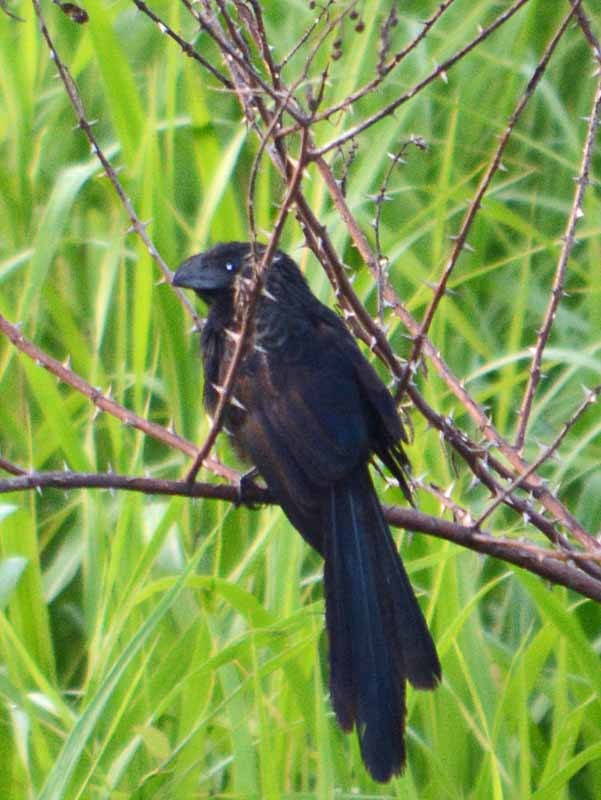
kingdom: Animalia
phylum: Chordata
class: Aves
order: Cuculiformes
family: Cuculidae
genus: Crotophaga
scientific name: Crotophaga sulcirostris
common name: Groove-billed ani
